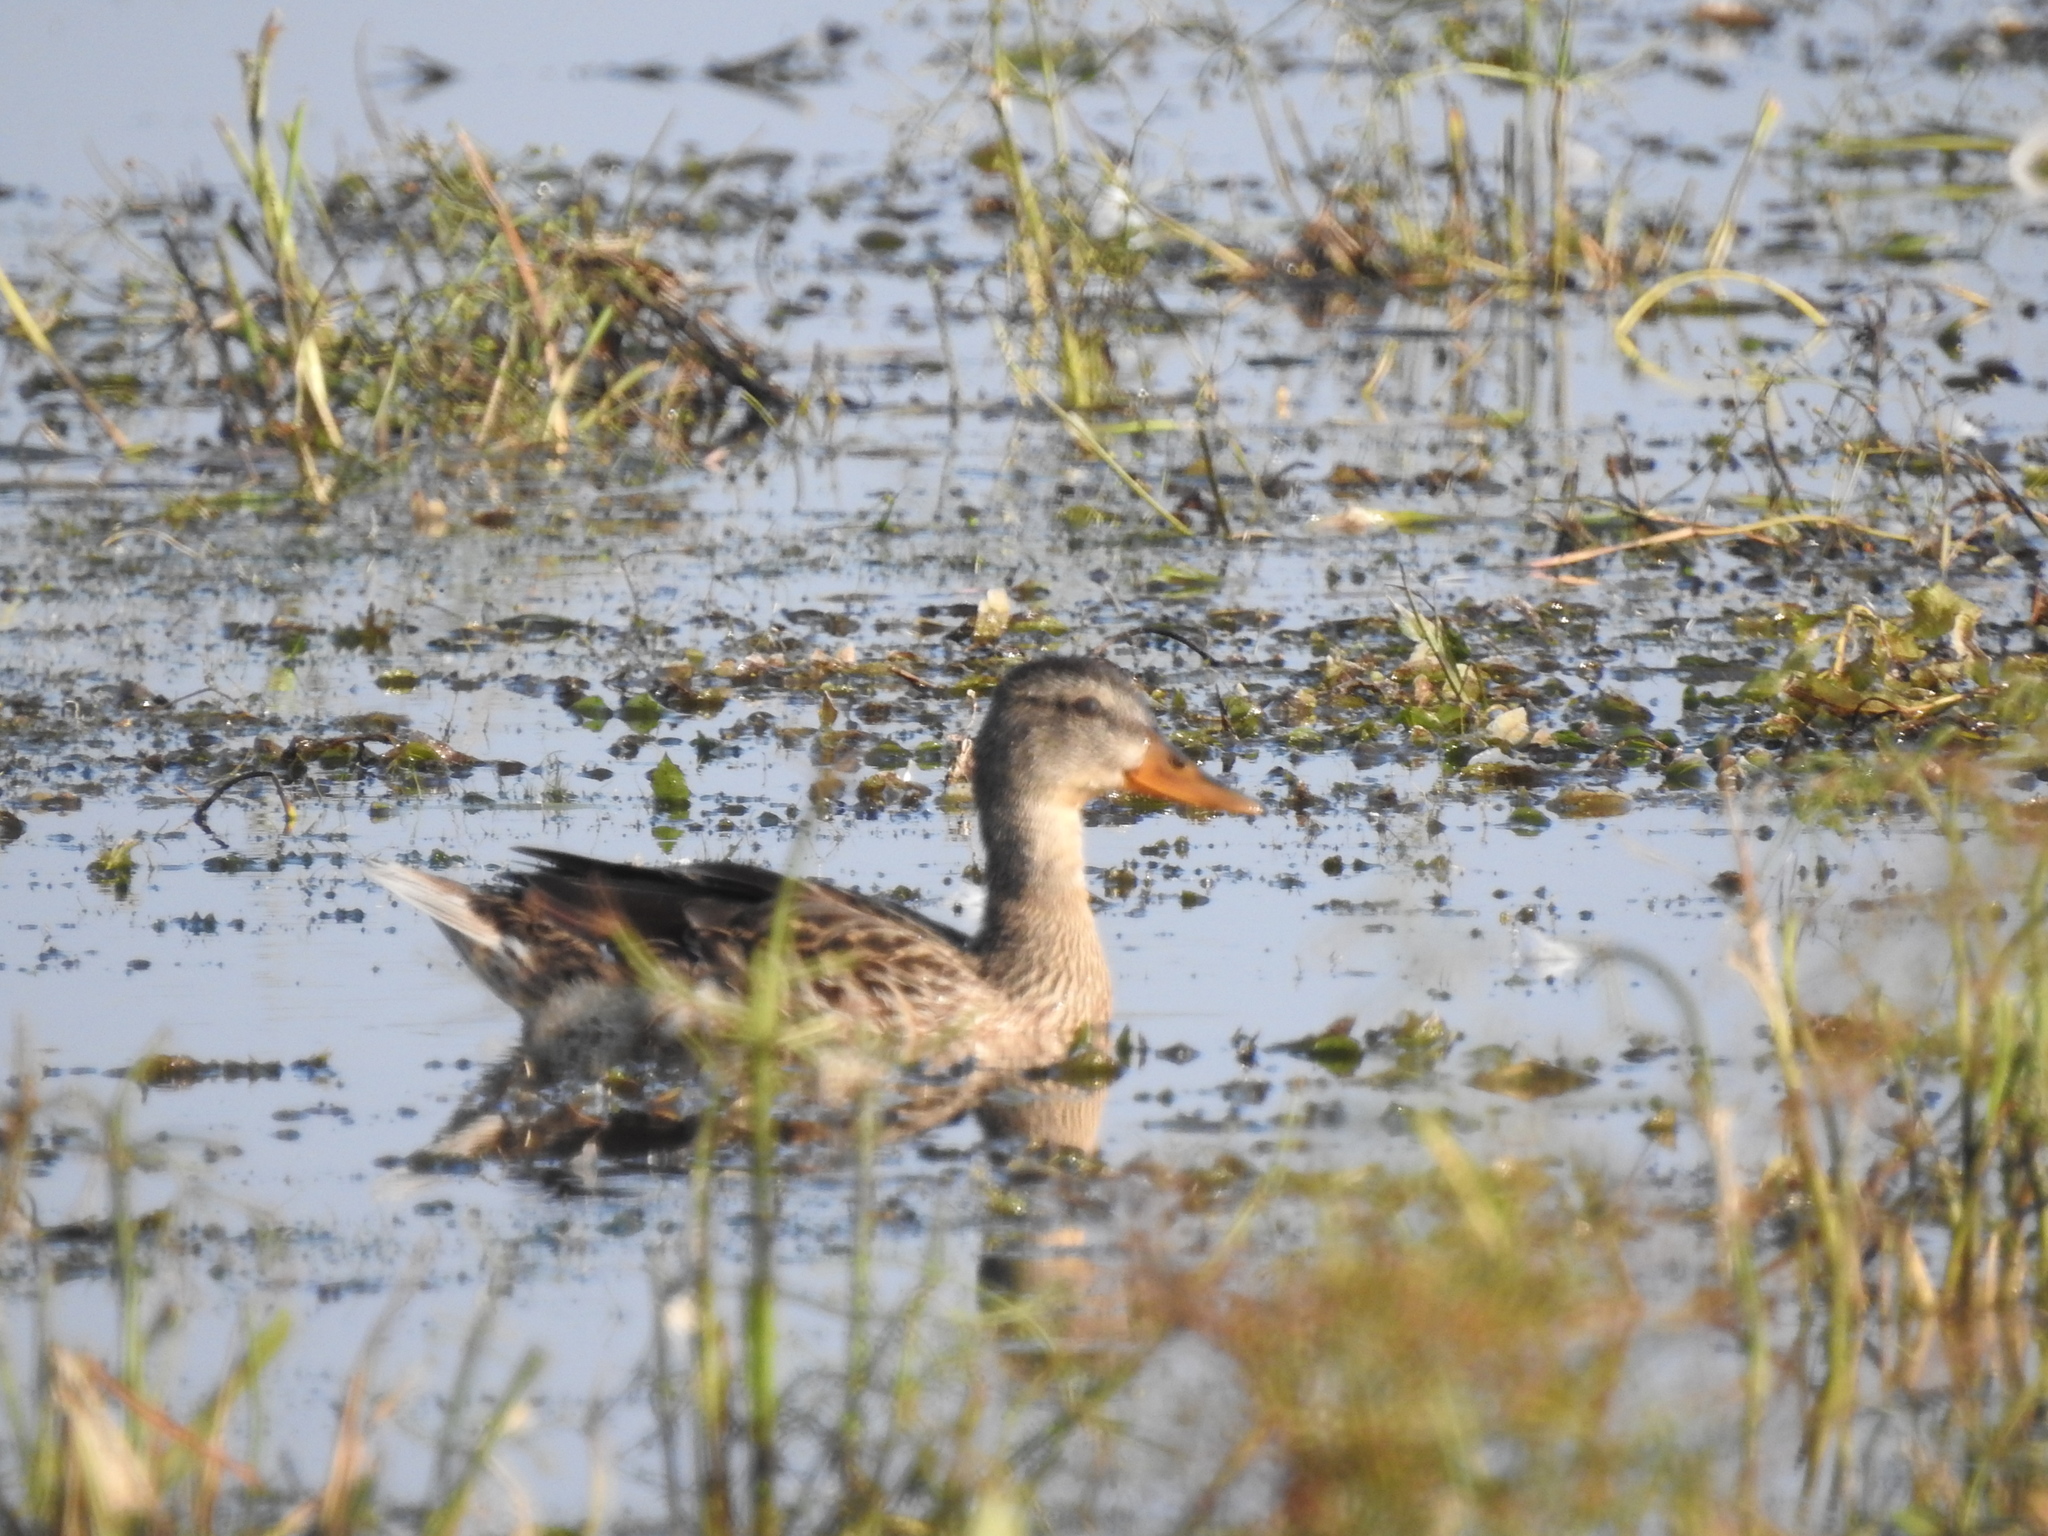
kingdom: Animalia
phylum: Chordata
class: Aves
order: Anseriformes
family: Anatidae
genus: Anas
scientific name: Anas platyrhynchos
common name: Mallard
